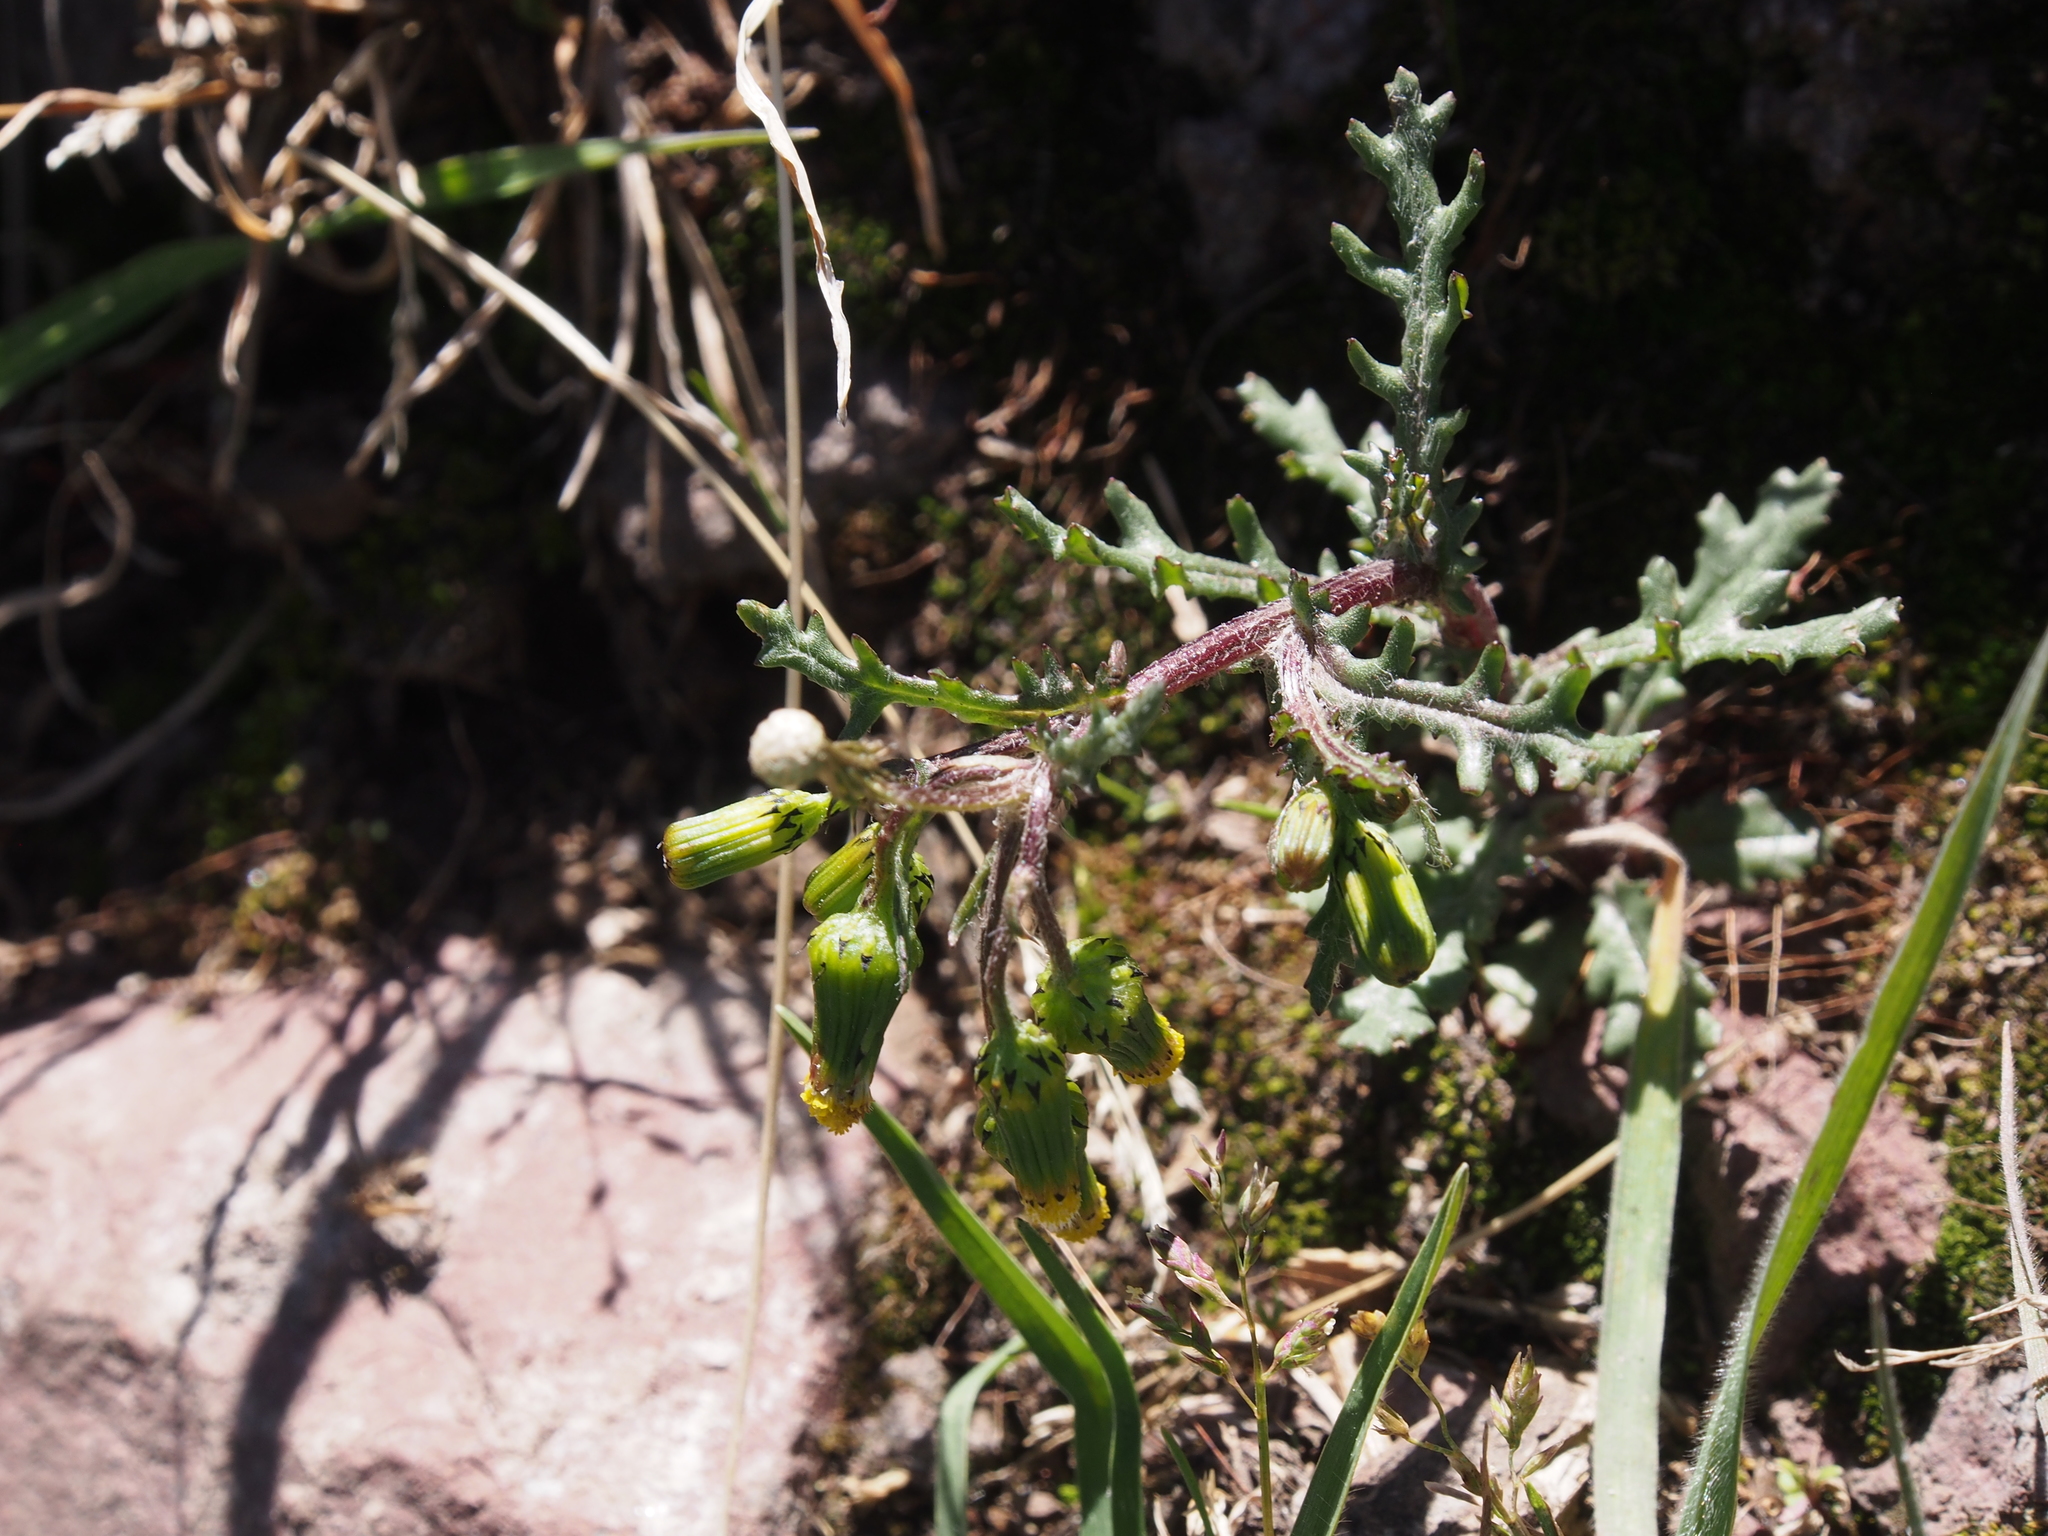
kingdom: Plantae
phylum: Tracheophyta
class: Magnoliopsida
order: Asterales
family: Asteraceae
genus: Senecio
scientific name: Senecio vulgaris
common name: Old-man-in-the-spring
